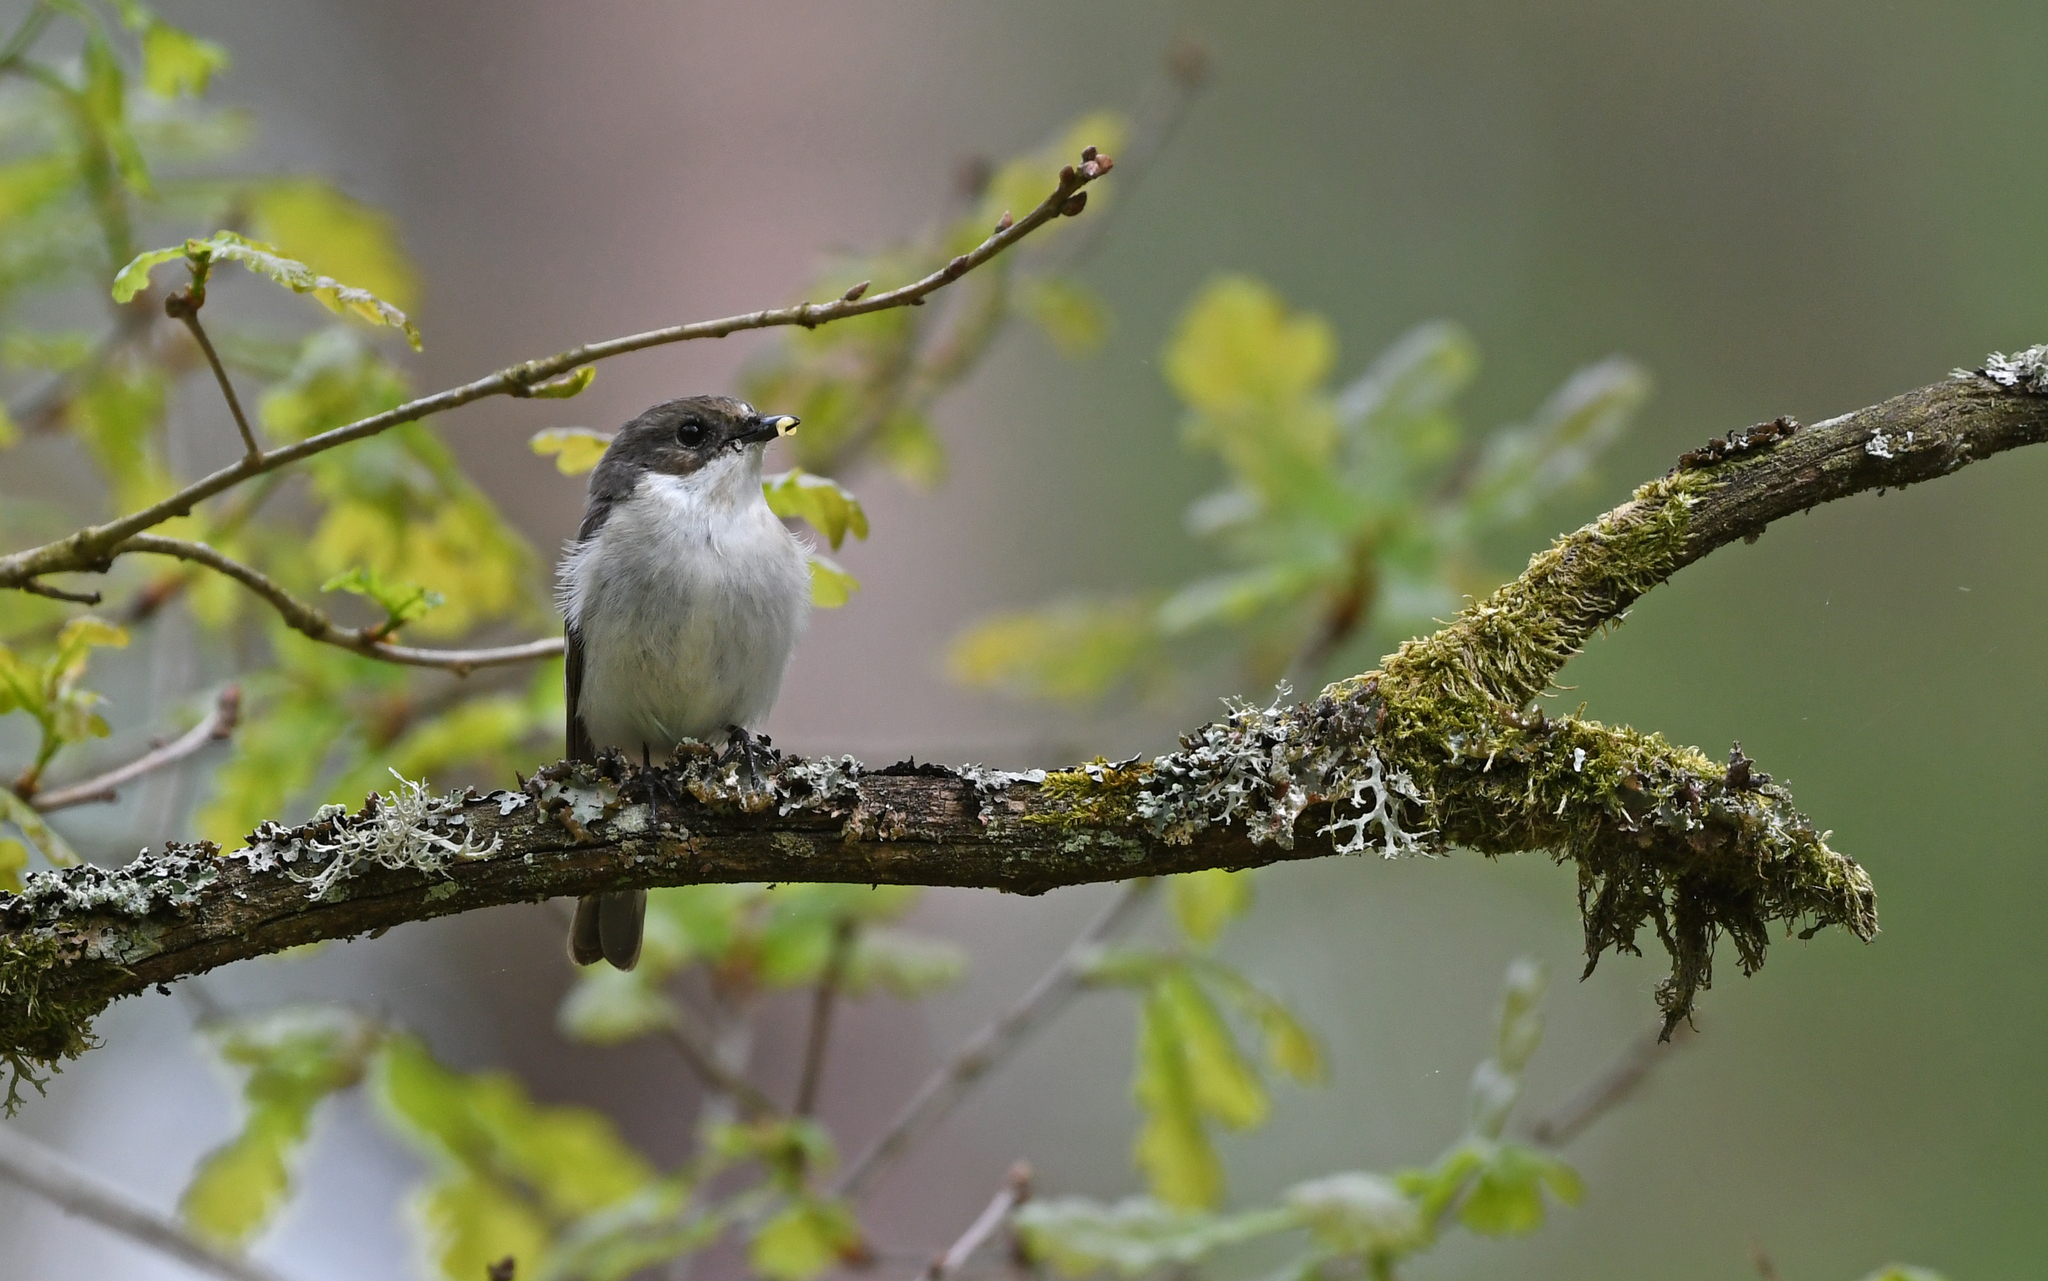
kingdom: Animalia
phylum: Chordata
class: Aves
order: Passeriformes
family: Muscicapidae
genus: Ficedula
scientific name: Ficedula hypoleuca
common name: European pied flycatcher
